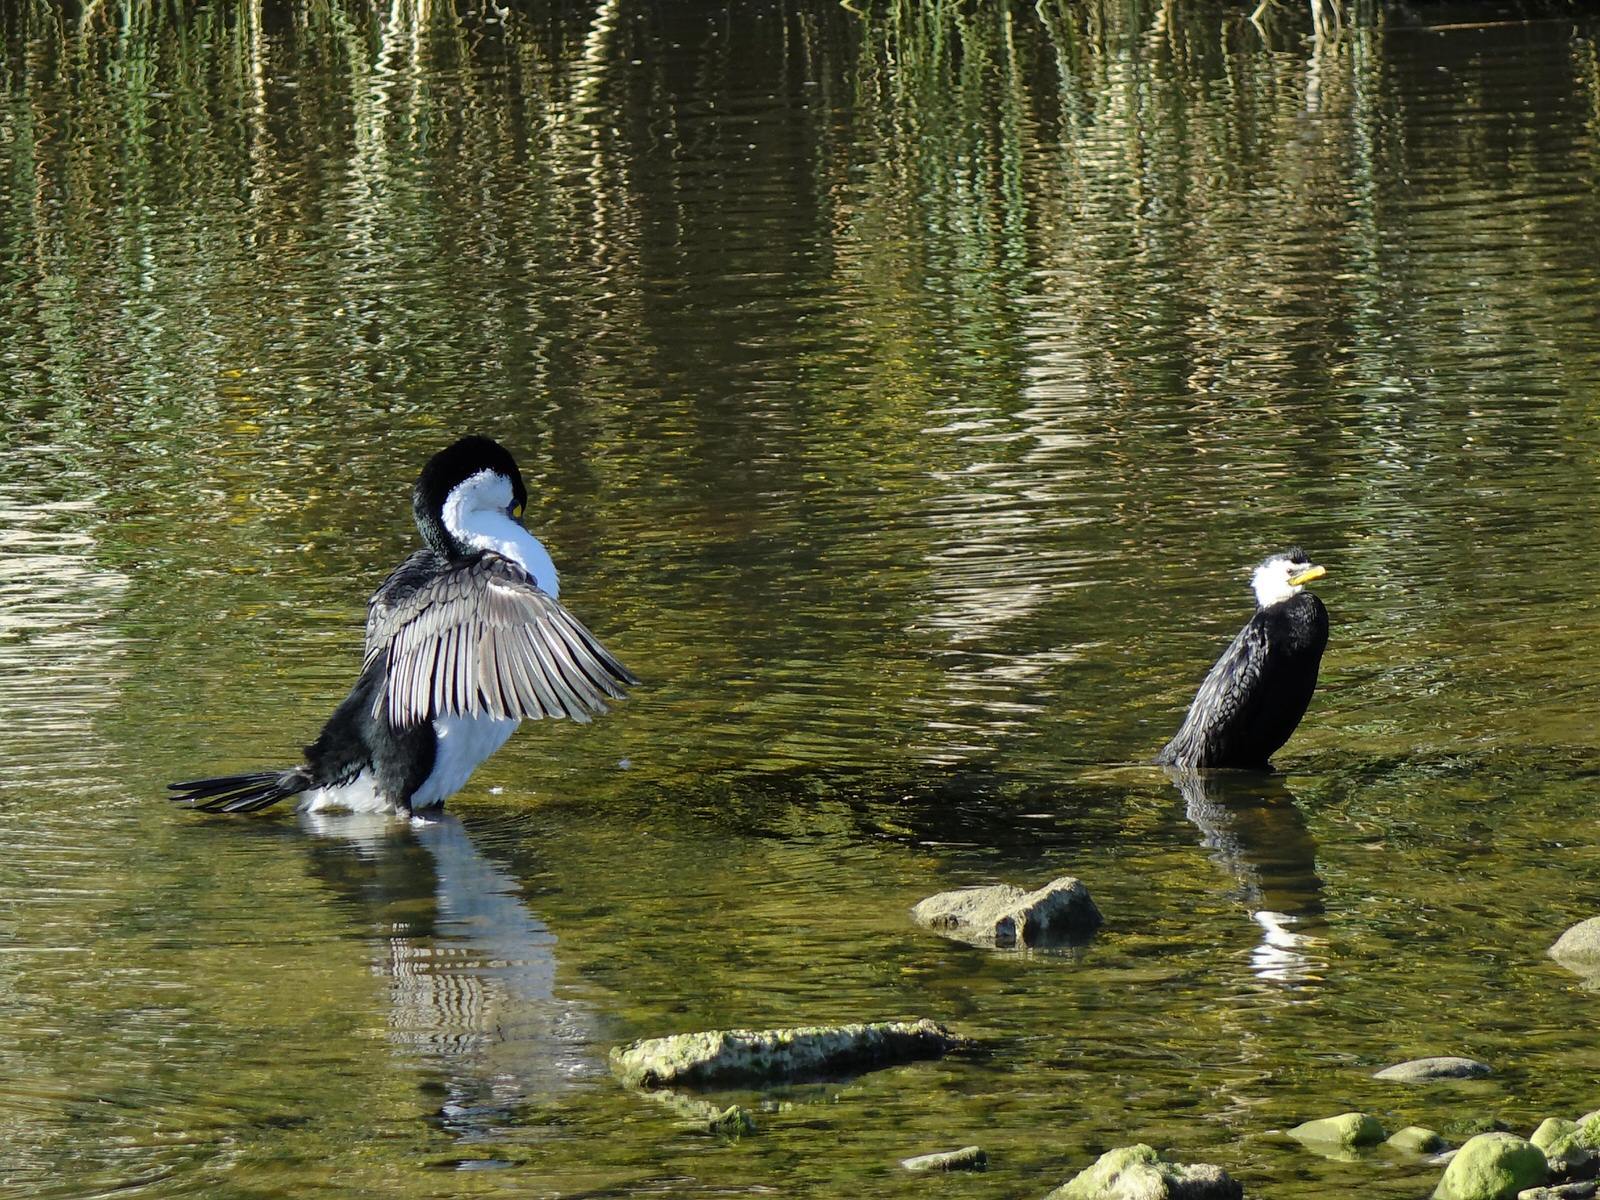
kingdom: Animalia
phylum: Chordata
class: Aves
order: Suliformes
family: Phalacrocoracidae
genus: Phalacrocorax
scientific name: Phalacrocorax varius
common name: Pied cormorant
